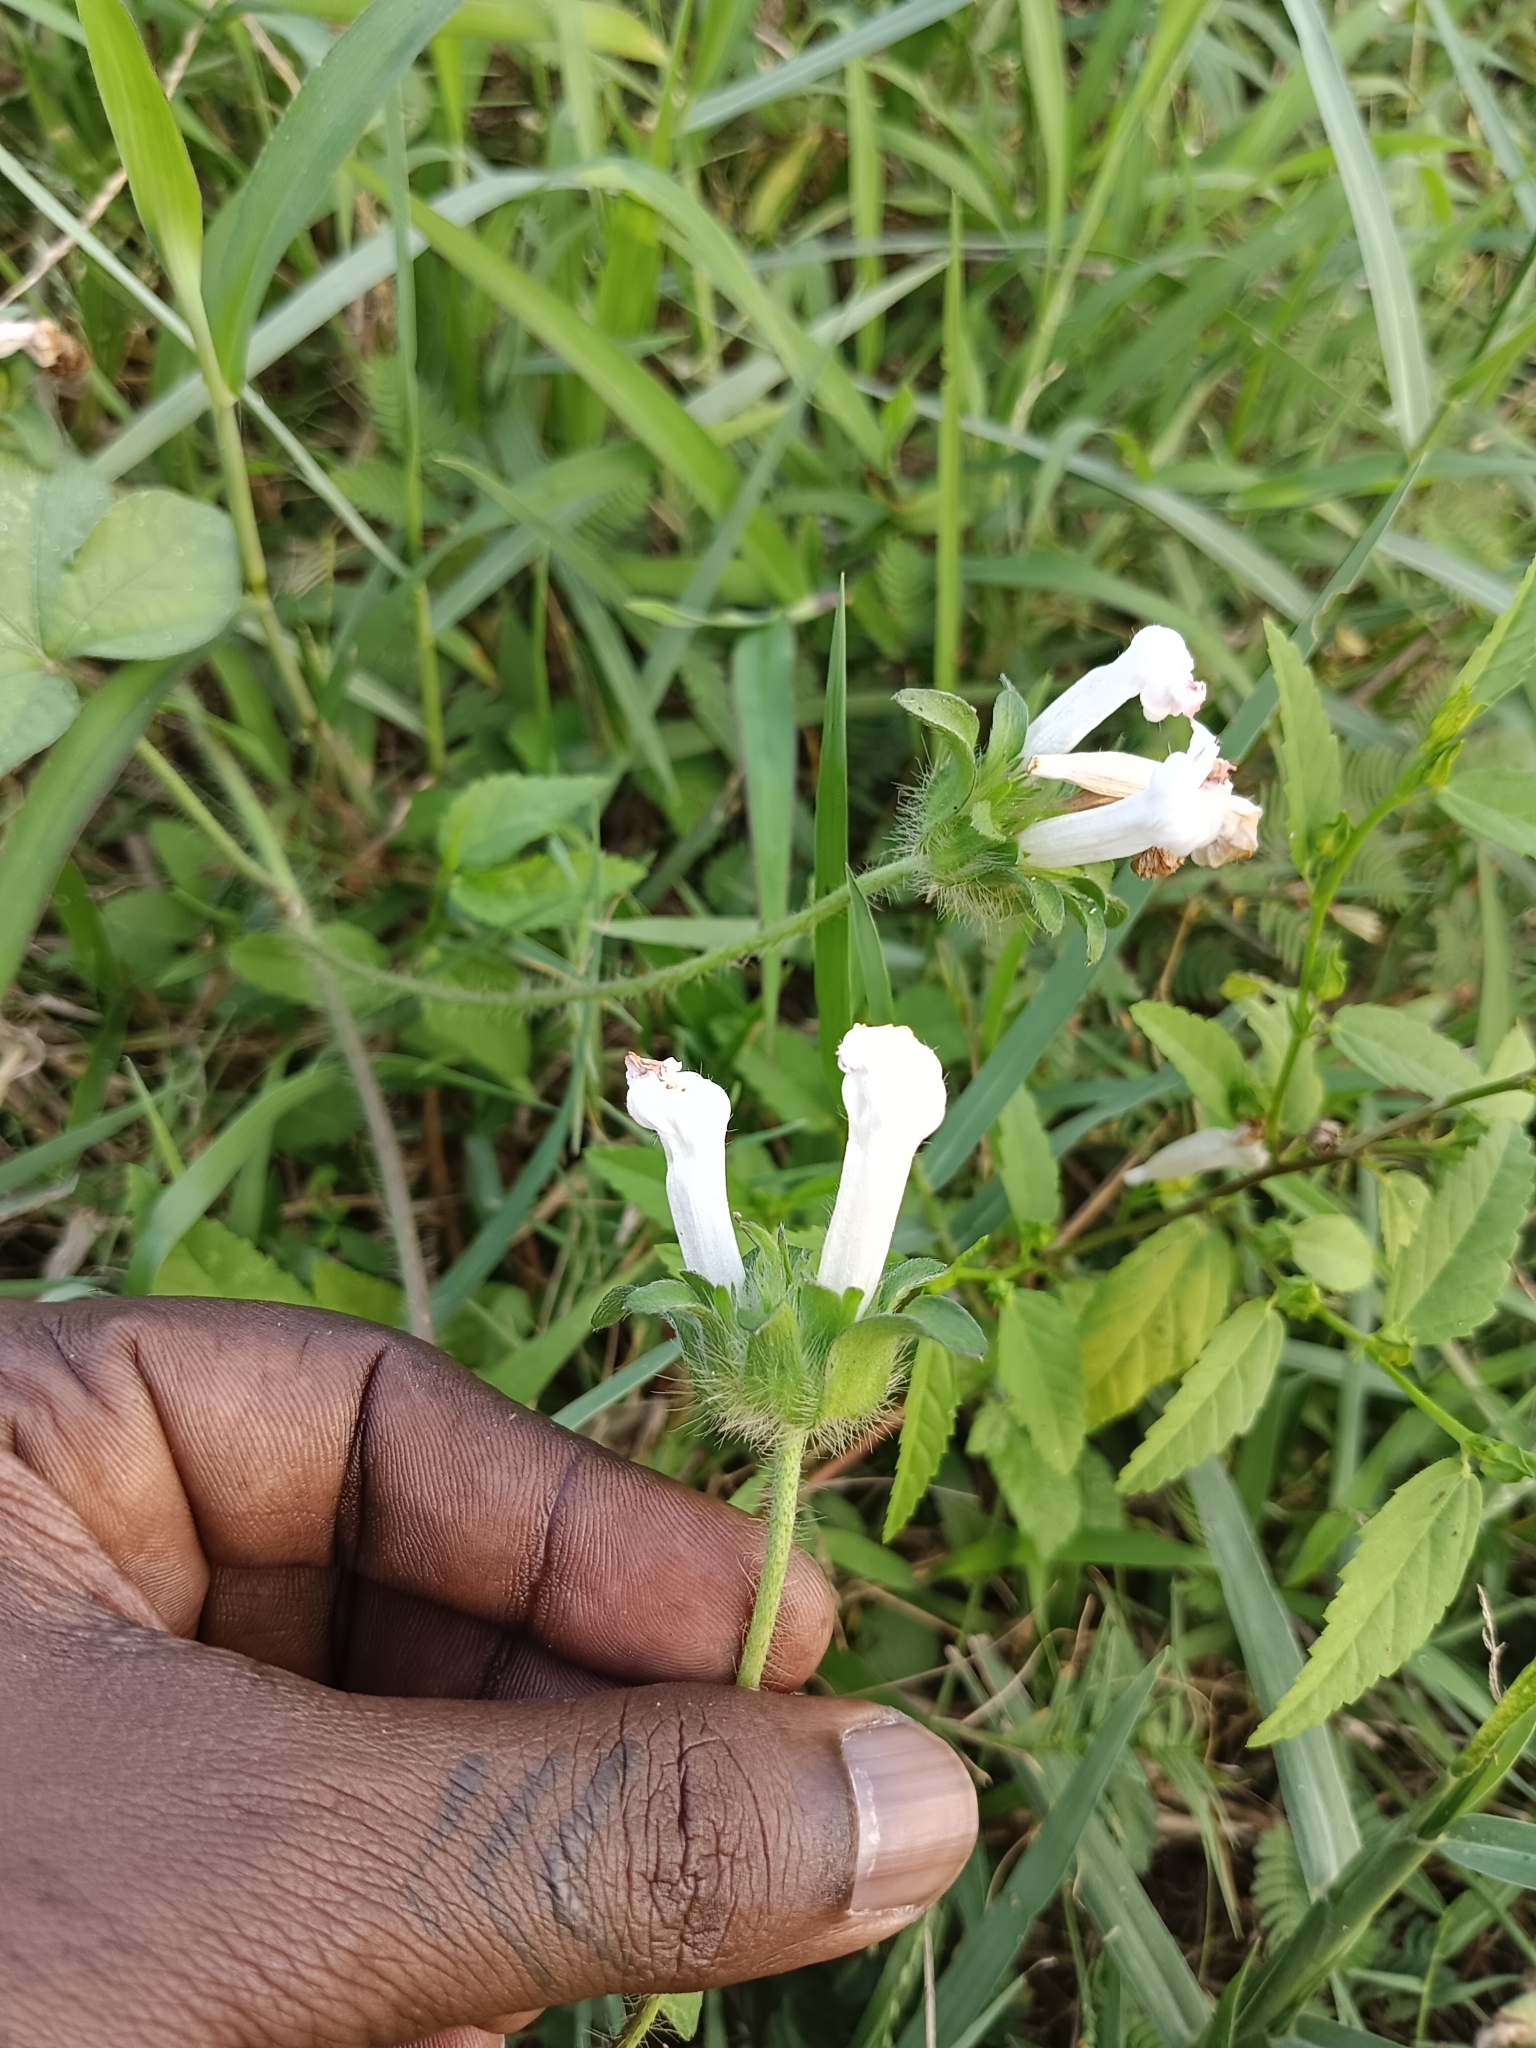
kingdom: Plantae
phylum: Tracheophyta
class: Magnoliopsida
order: Solanales
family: Convolvulaceae
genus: Ipomoea
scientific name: Ipomoea pes-tigridis
